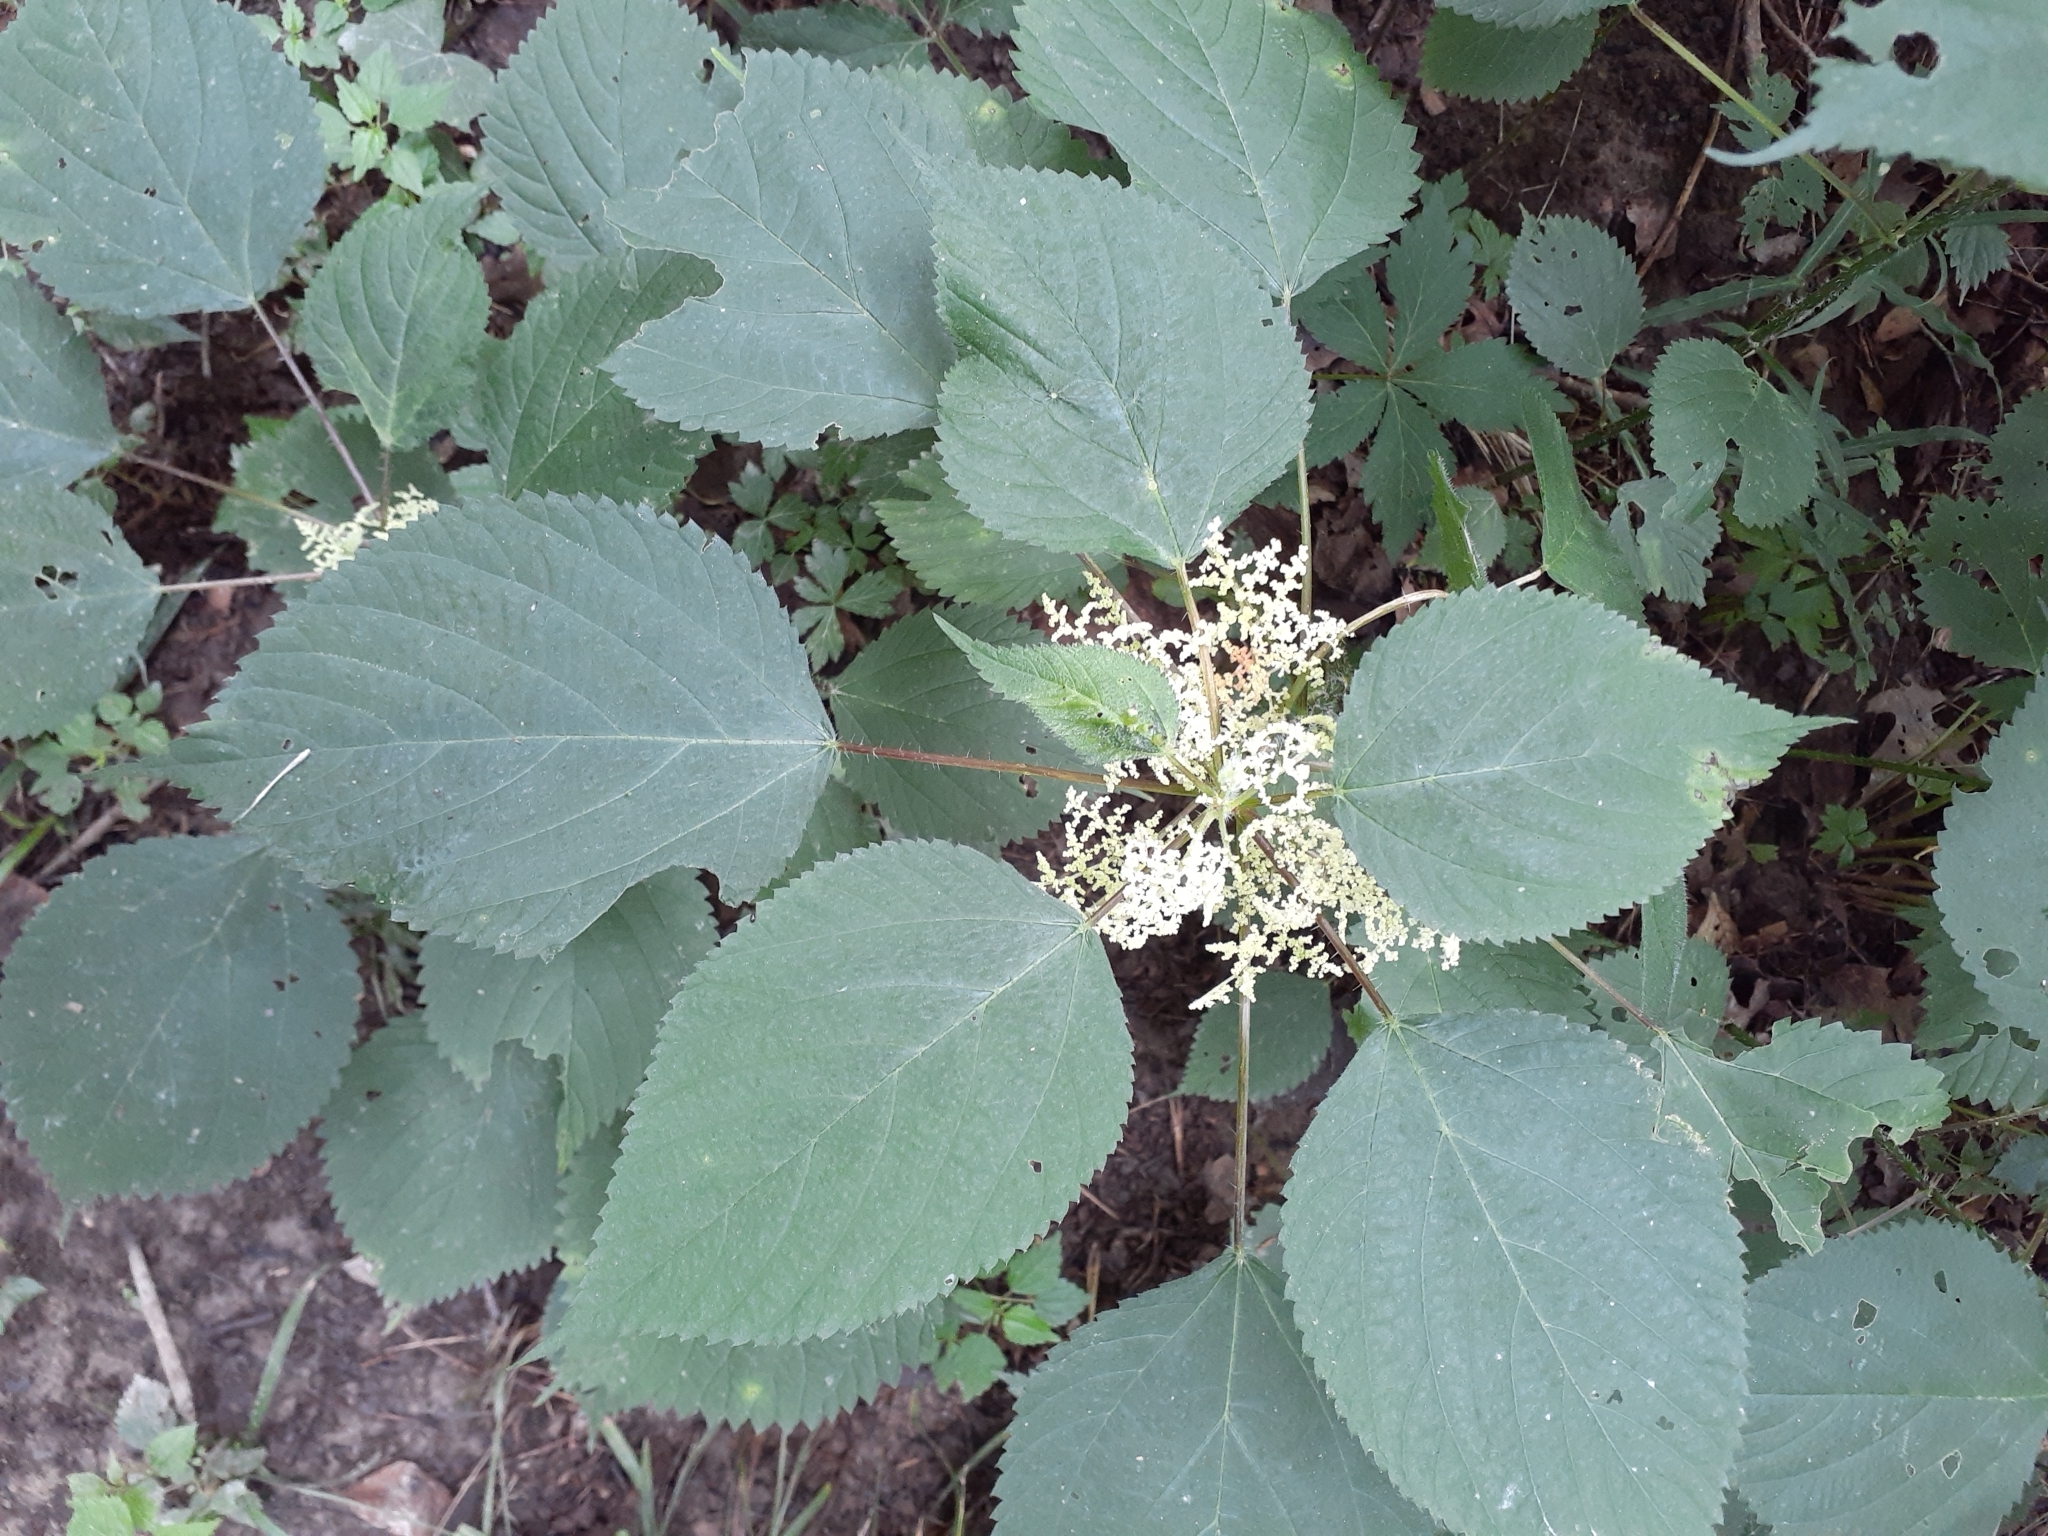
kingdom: Plantae
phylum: Tracheophyta
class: Magnoliopsida
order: Rosales
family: Urticaceae
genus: Laportea
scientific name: Laportea canadensis
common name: Canada nettle
